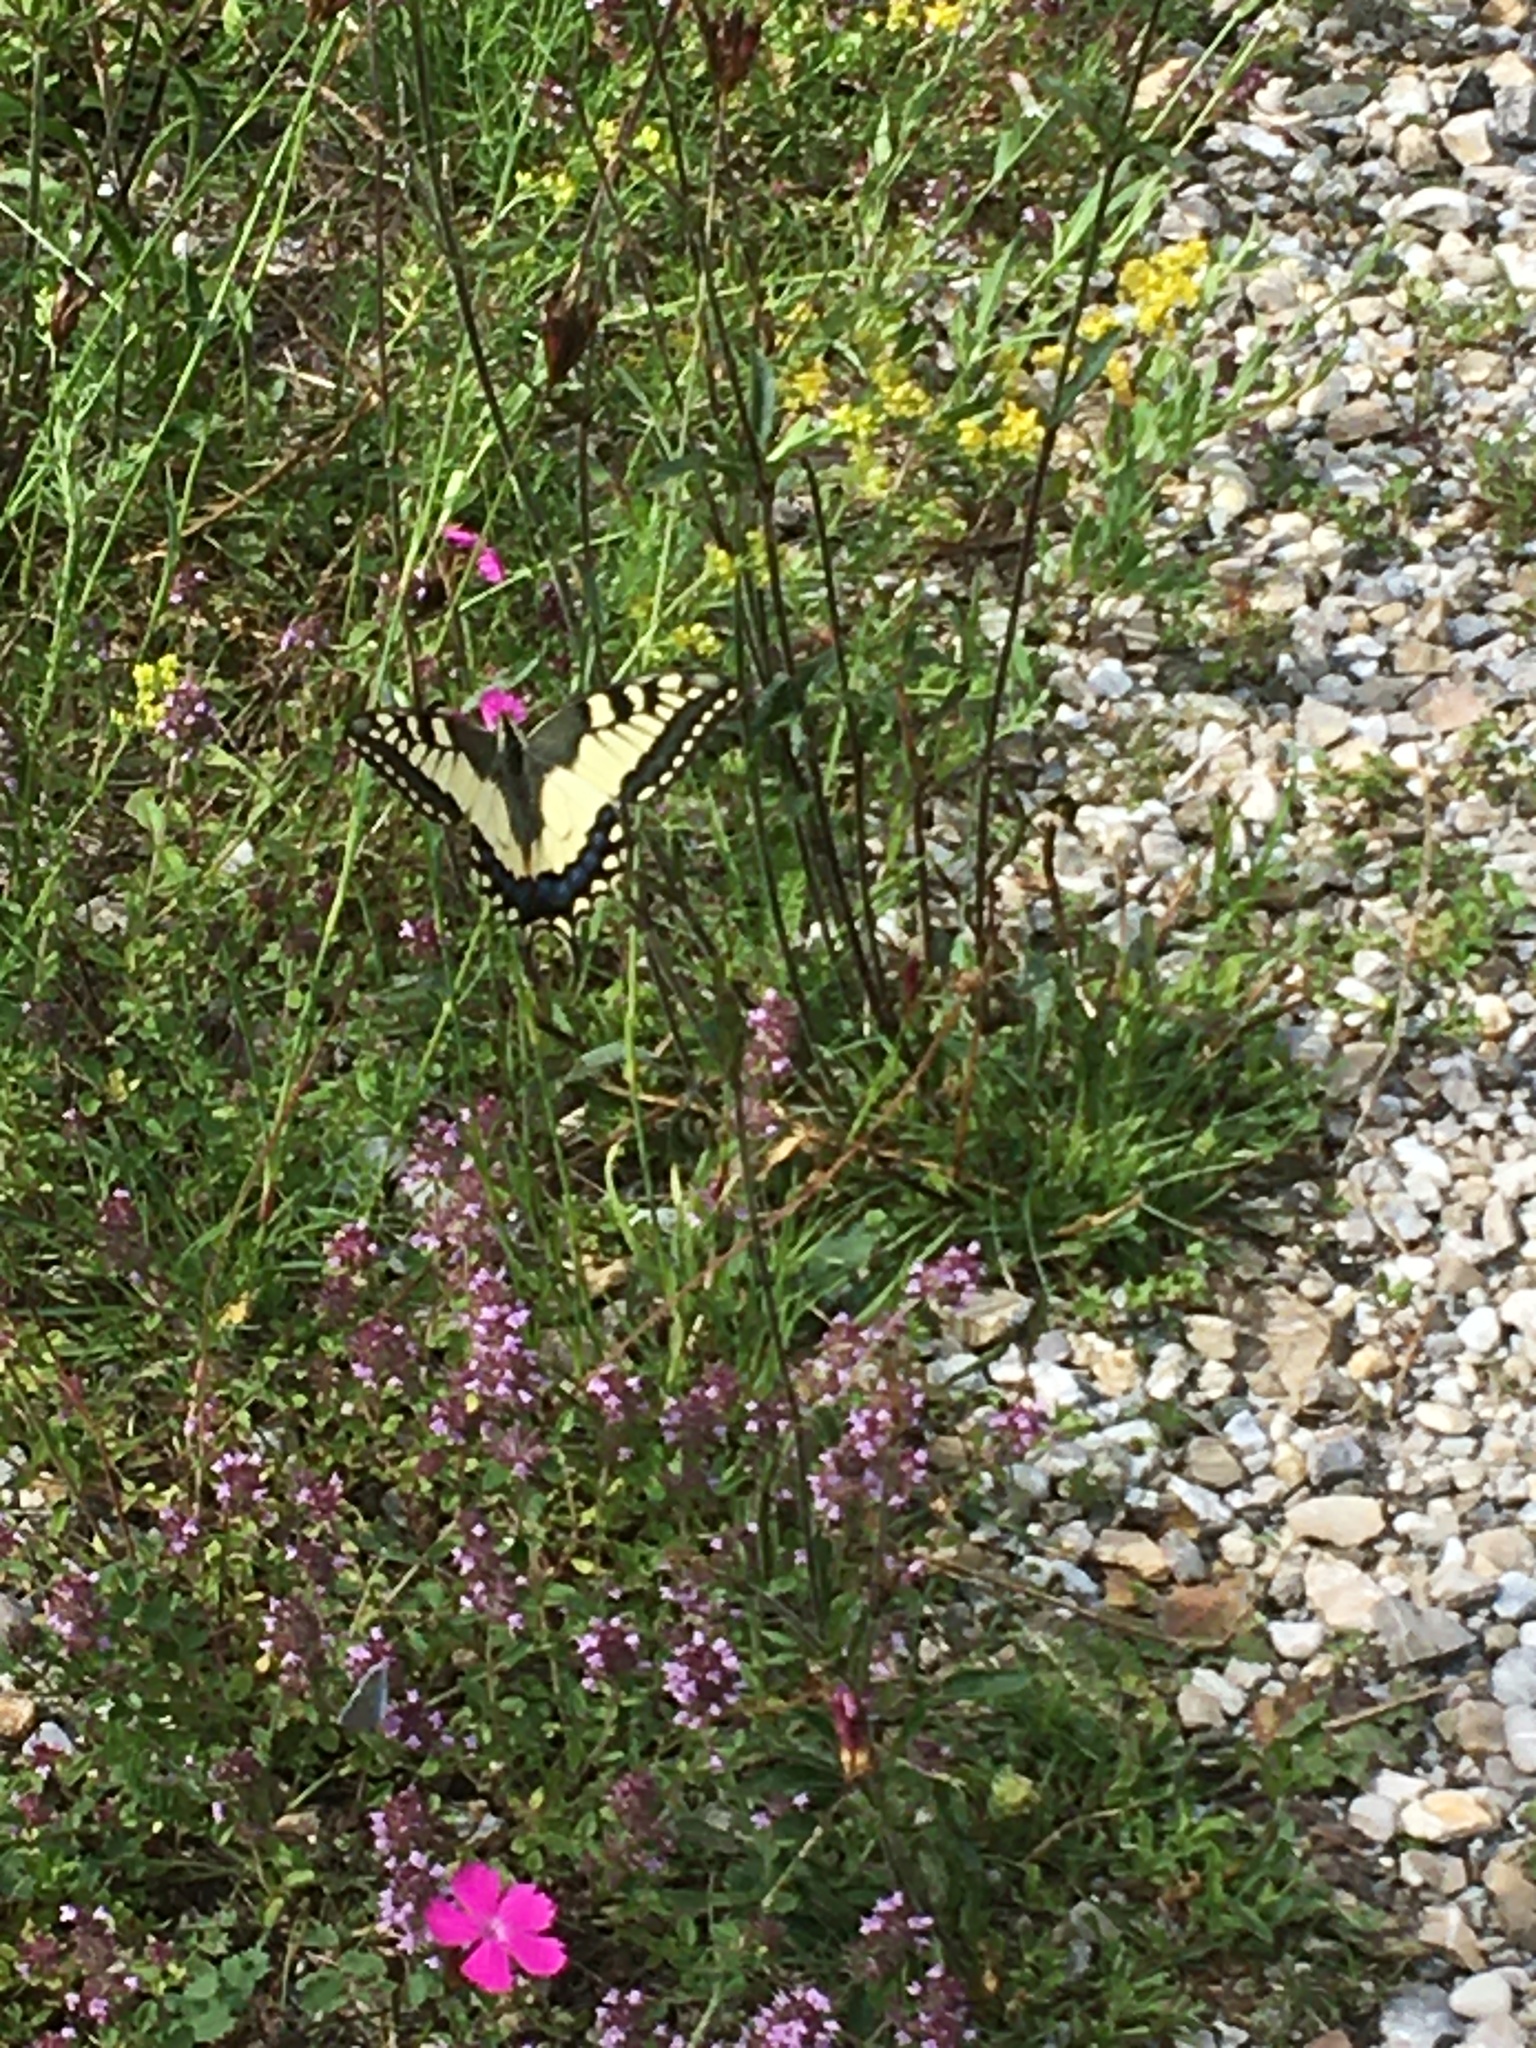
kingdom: Animalia
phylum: Arthropoda
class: Insecta
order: Lepidoptera
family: Papilionidae
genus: Papilio
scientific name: Papilio machaon
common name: Swallowtail
